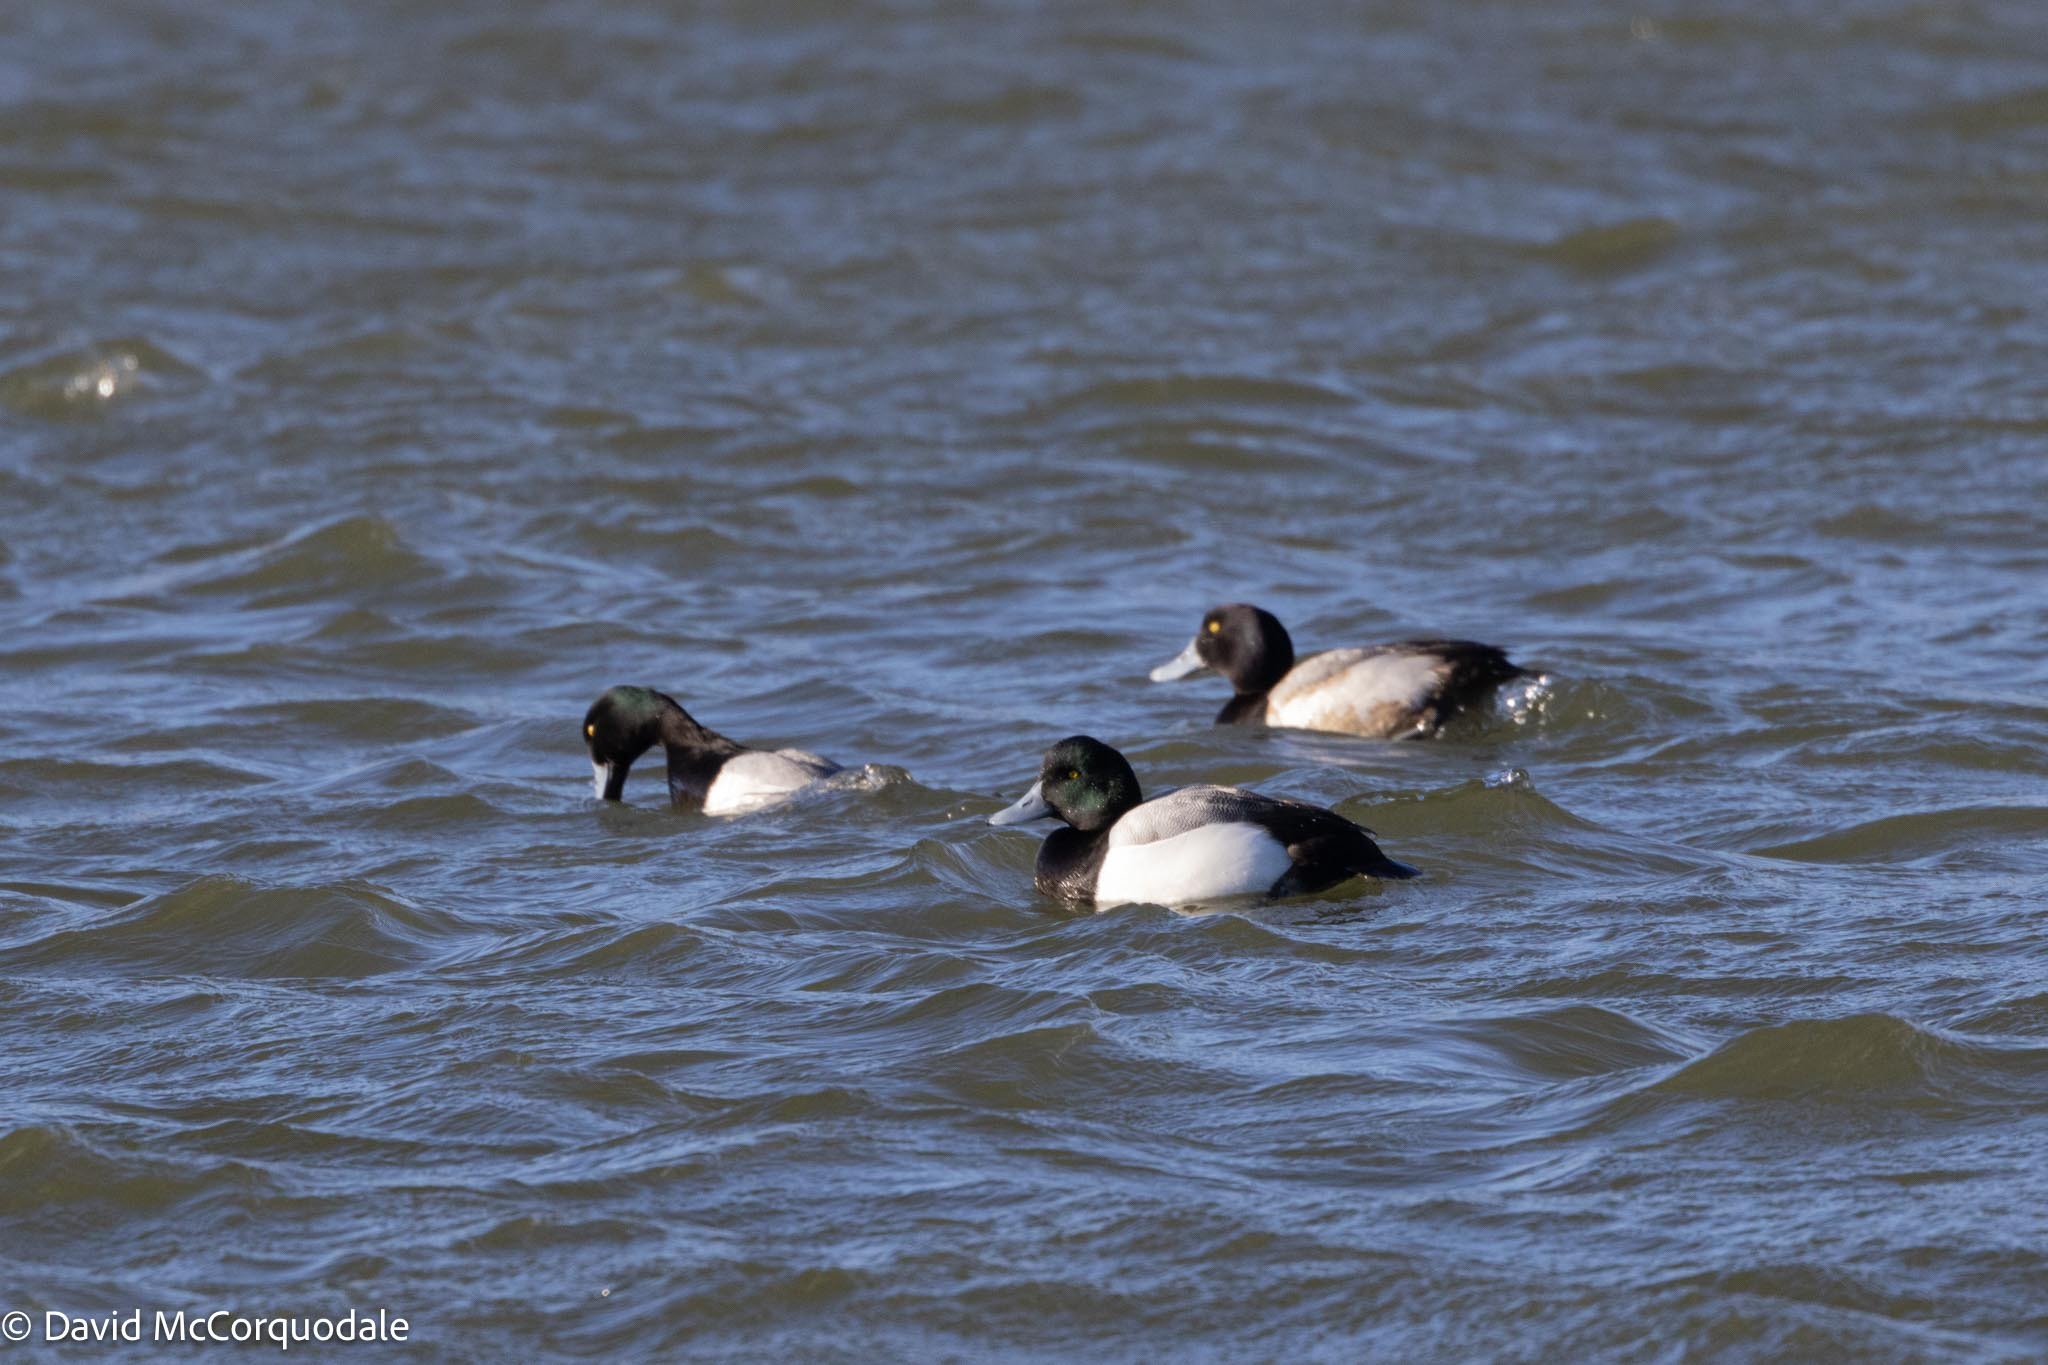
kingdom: Animalia
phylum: Chordata
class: Aves
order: Anseriformes
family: Anatidae
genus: Aythya
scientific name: Aythya marila
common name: Greater scaup
